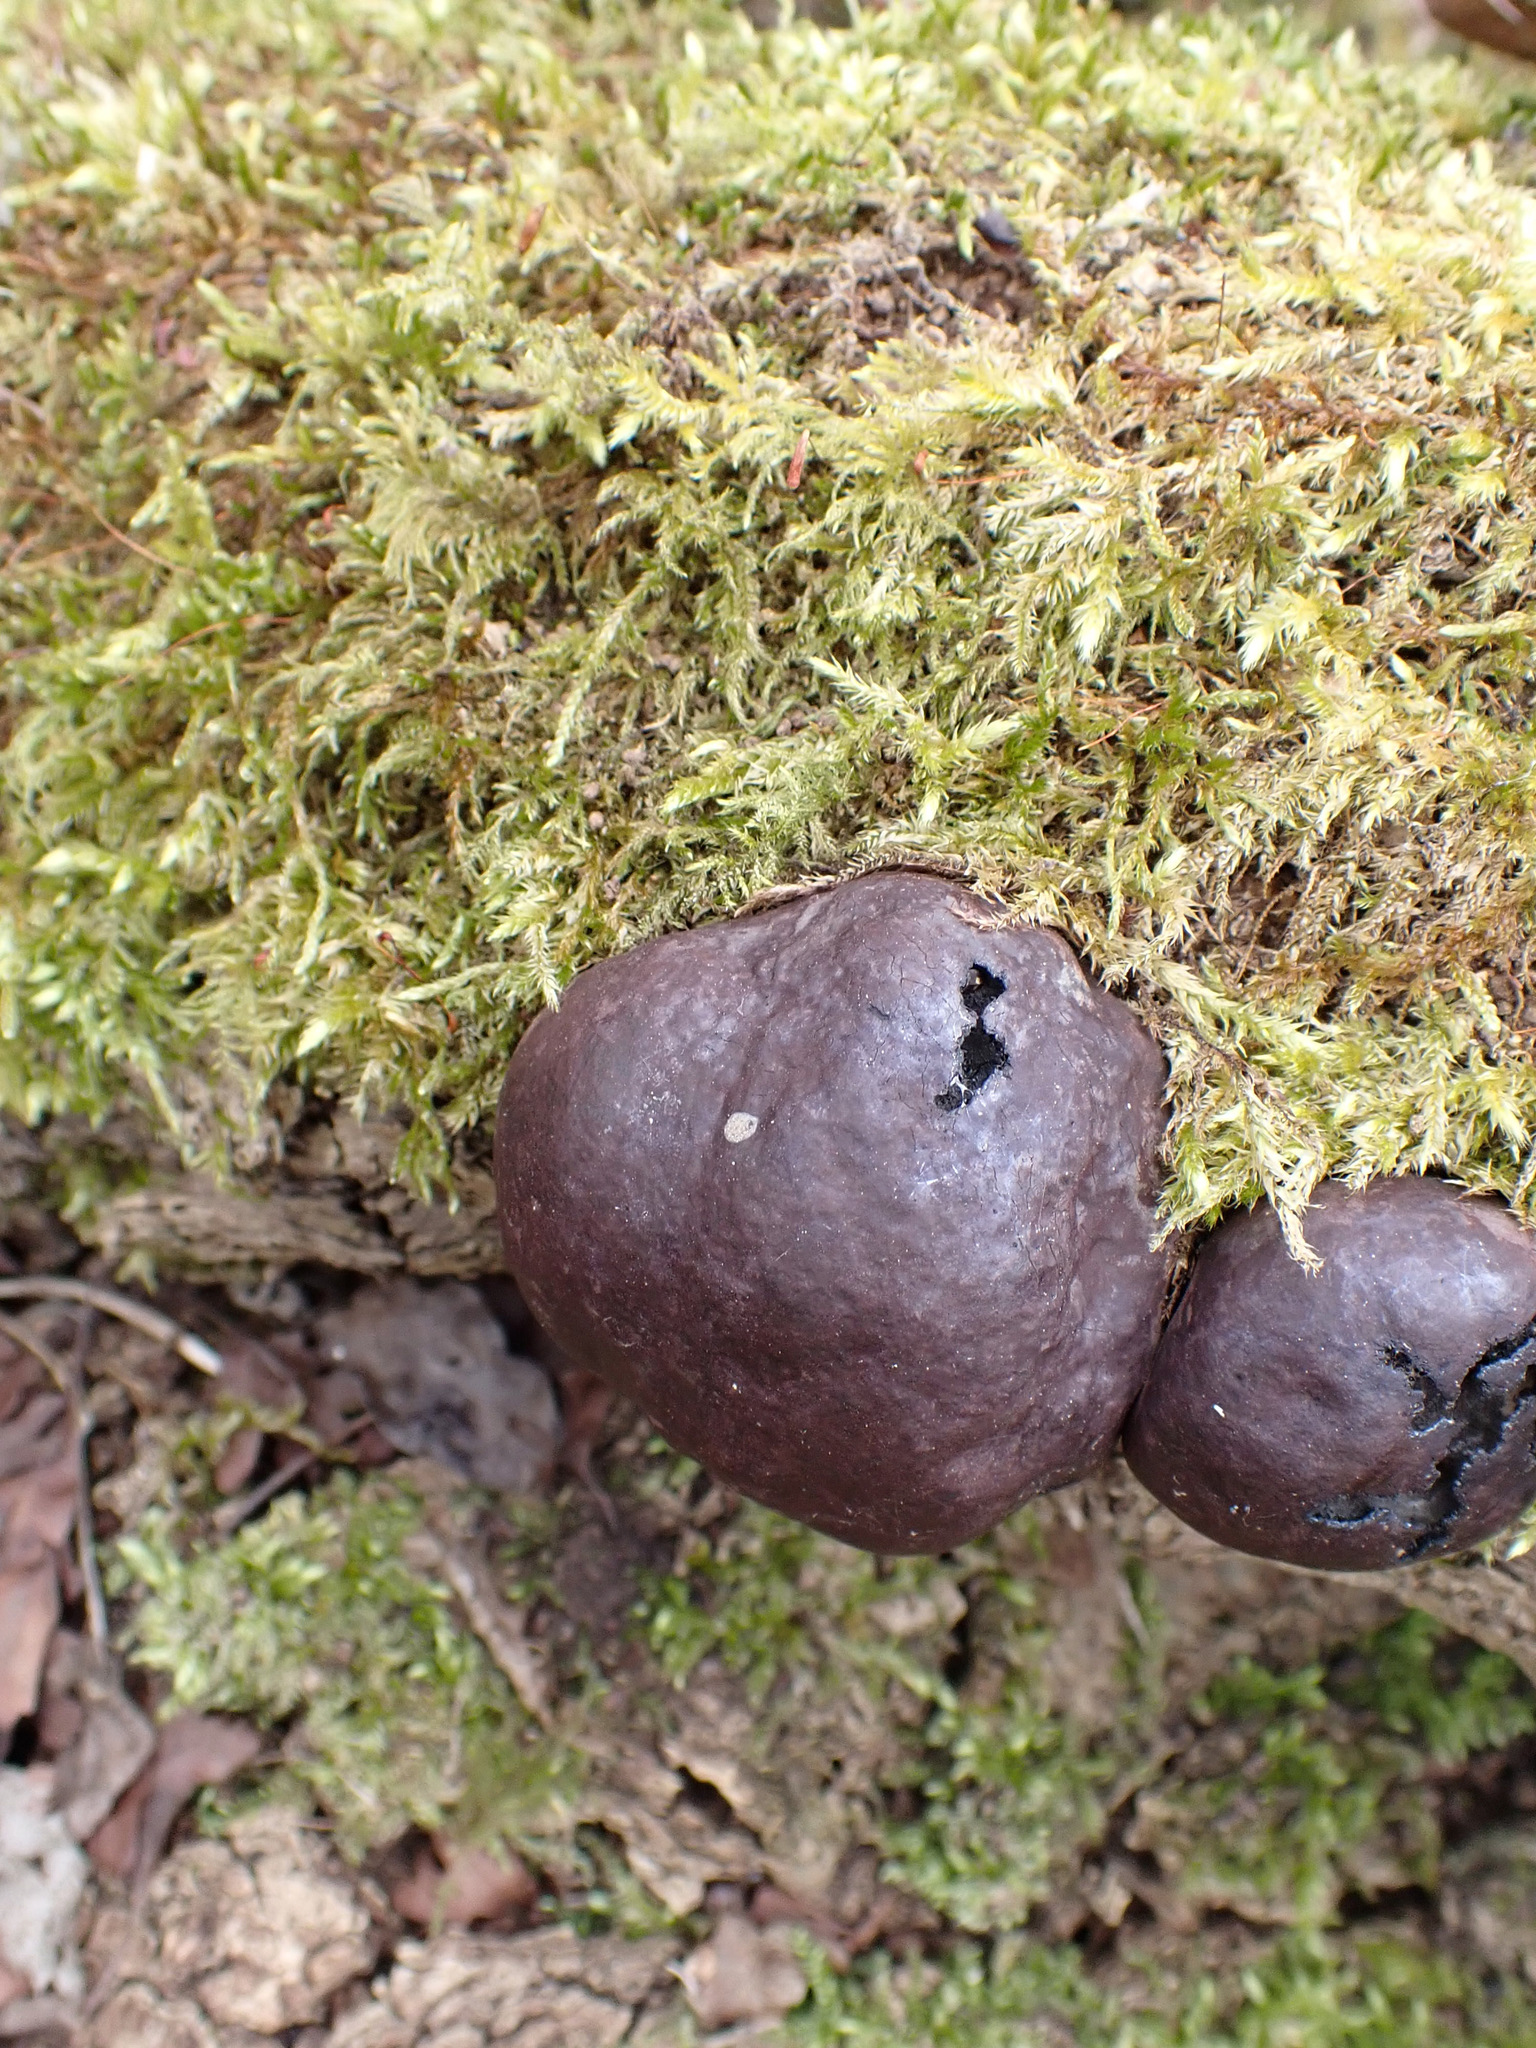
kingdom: Fungi
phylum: Ascomycota
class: Sordariomycetes
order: Xylariales
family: Hypoxylaceae
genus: Daldinia
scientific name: Daldinia concentrica
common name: Cramp balls
